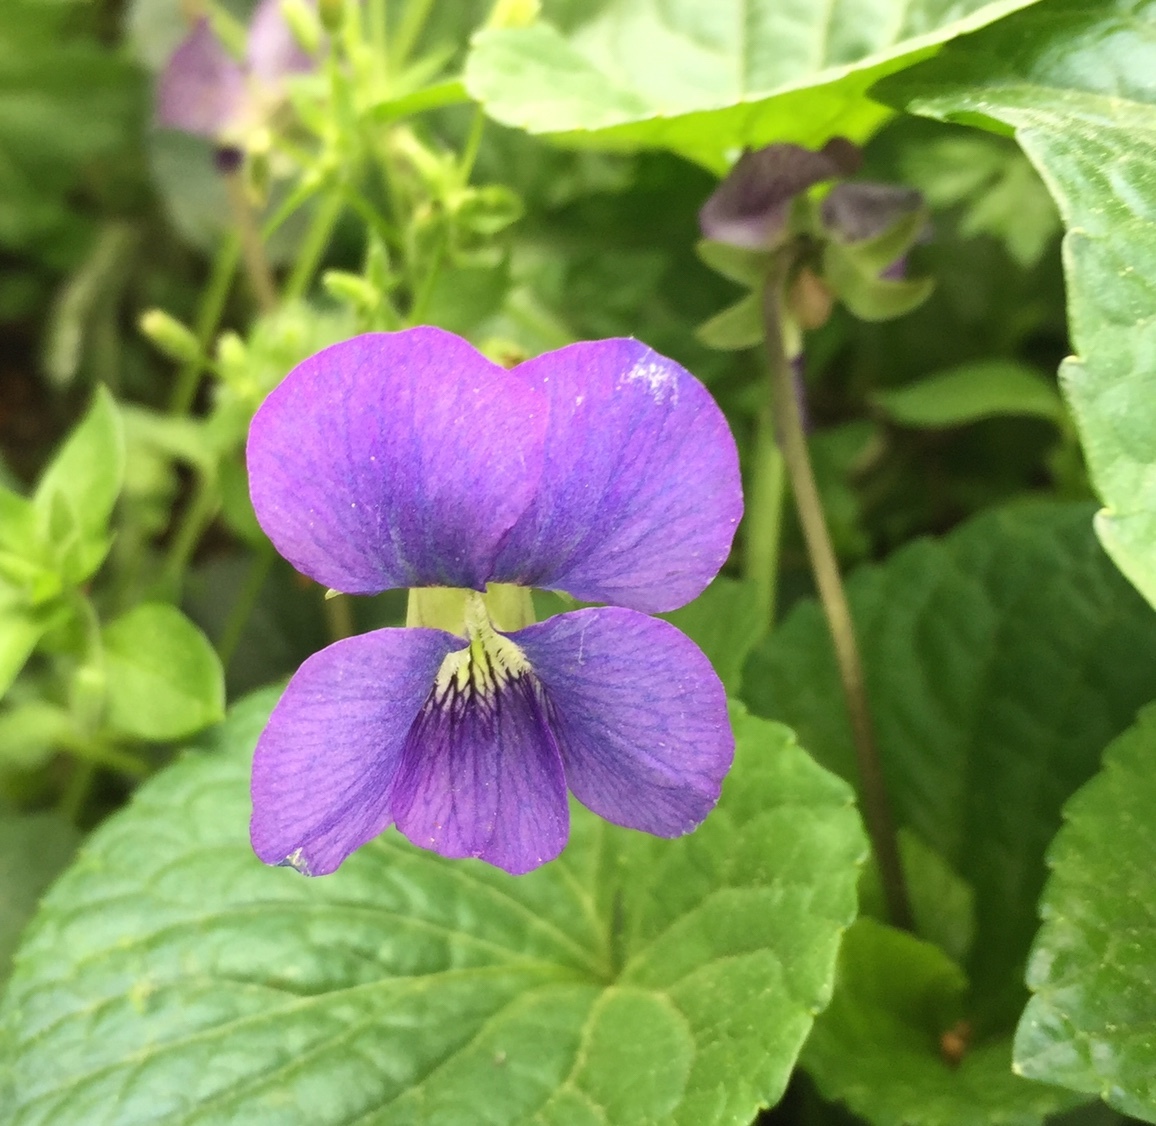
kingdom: Plantae
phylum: Tracheophyta
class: Magnoliopsida
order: Malpighiales
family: Violaceae
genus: Viola
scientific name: Viola sororia
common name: Dooryard violet
